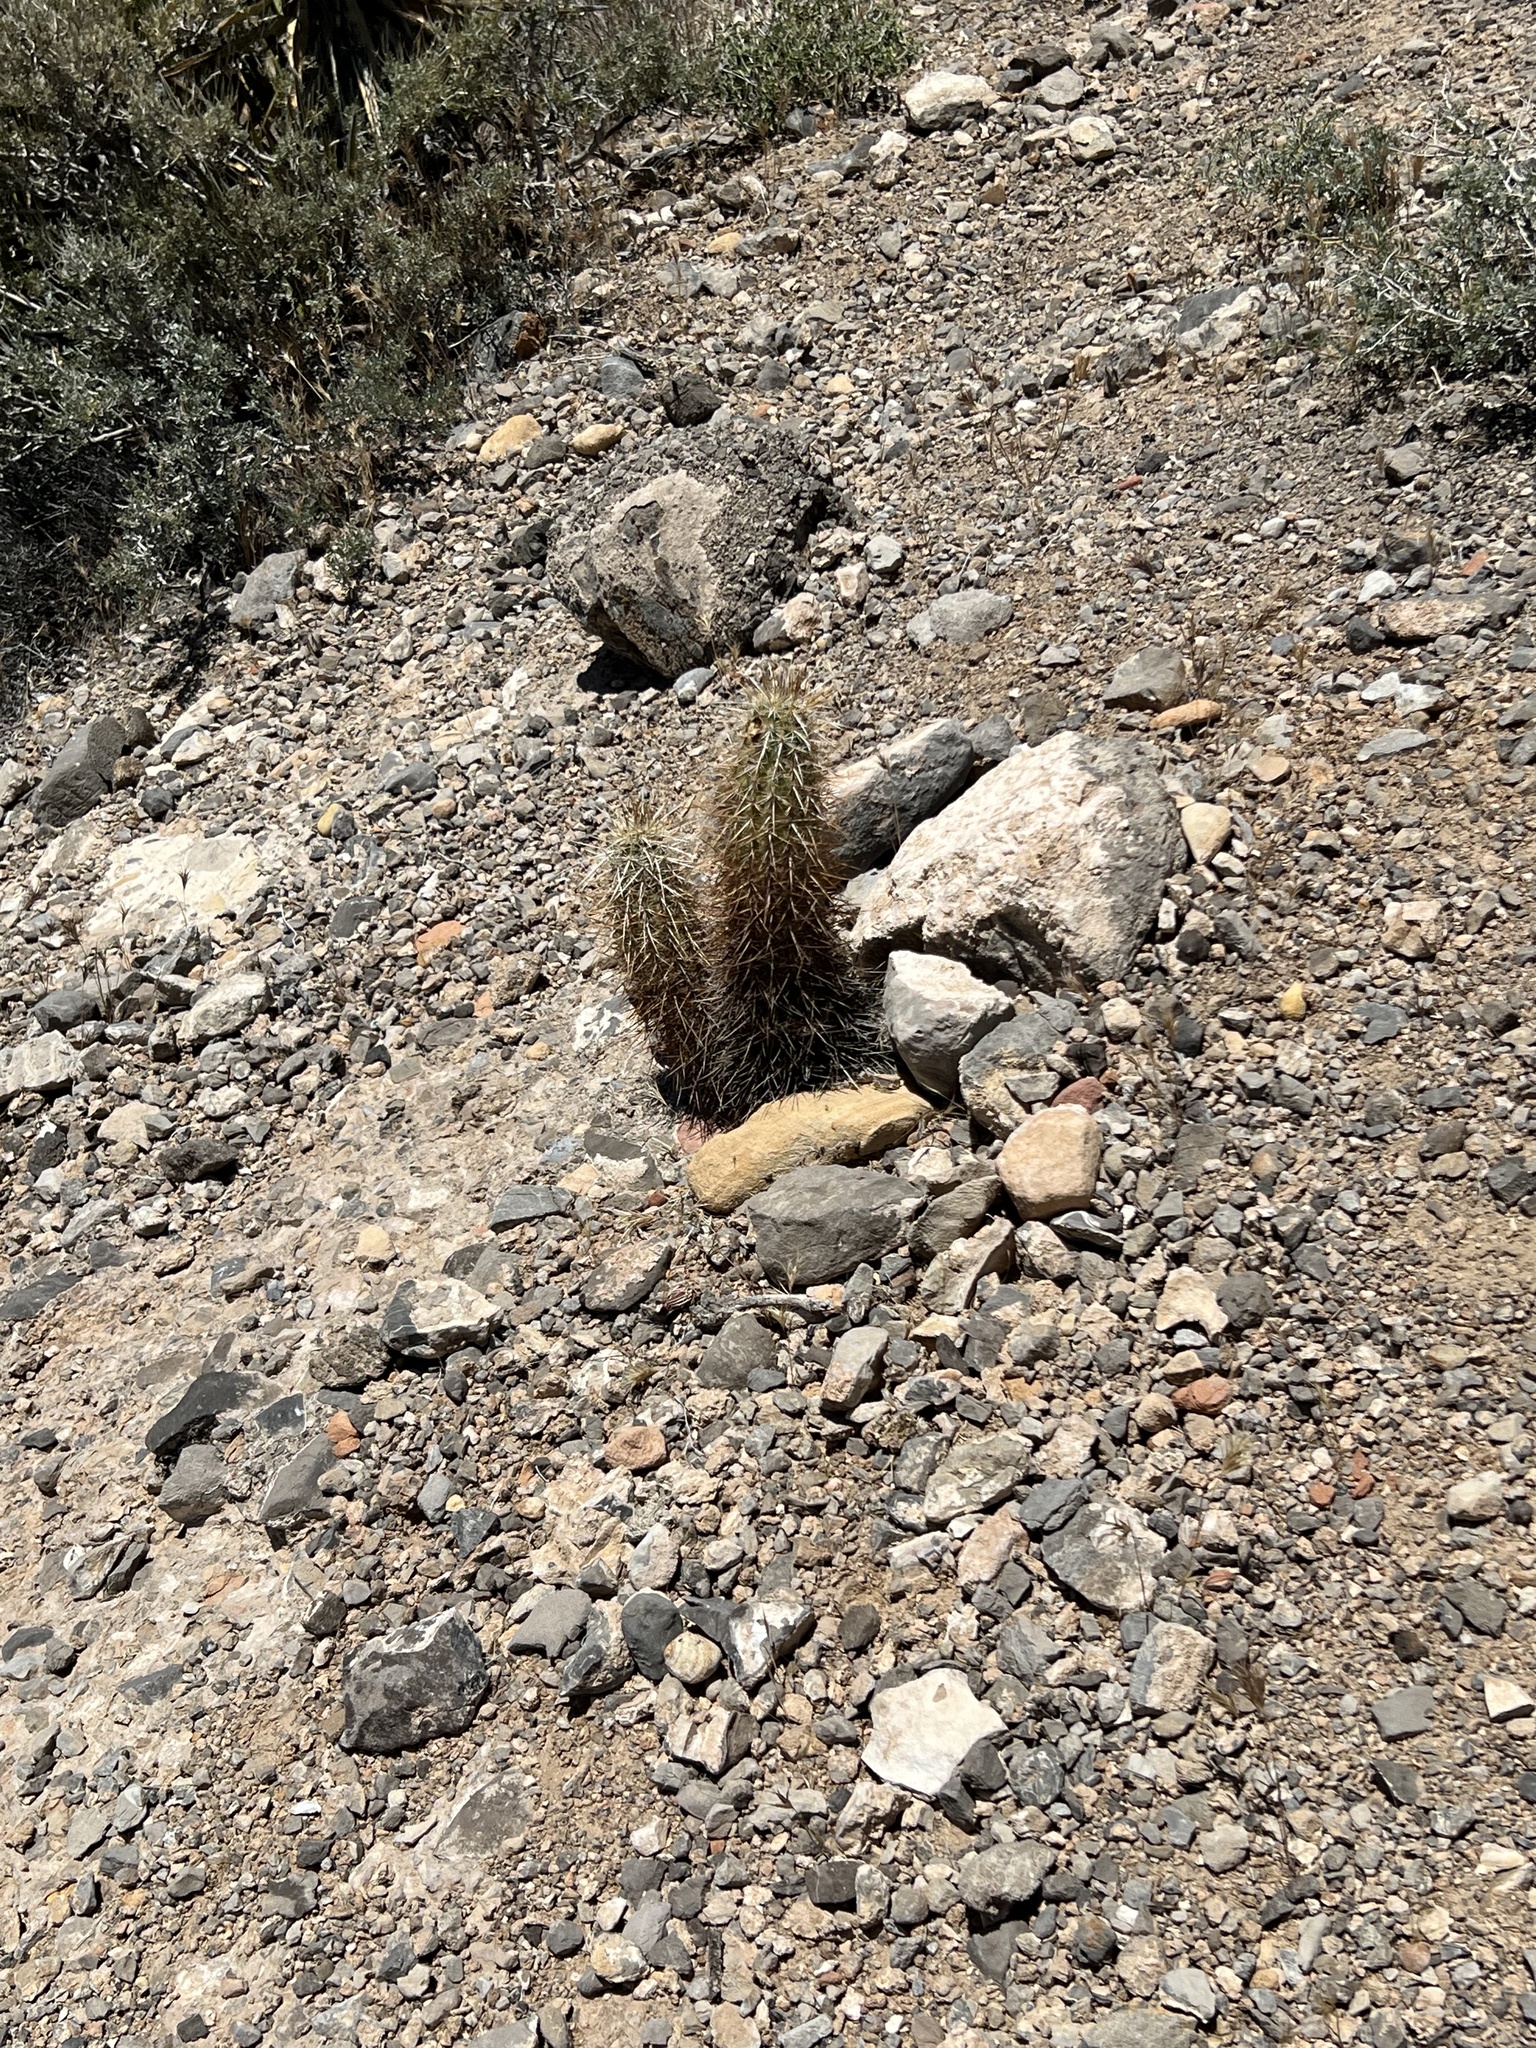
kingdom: Plantae
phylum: Tracheophyta
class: Magnoliopsida
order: Caryophyllales
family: Cactaceae
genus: Echinocereus
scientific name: Echinocereus engelmannii
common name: Engelmann's hedgehog cactus
